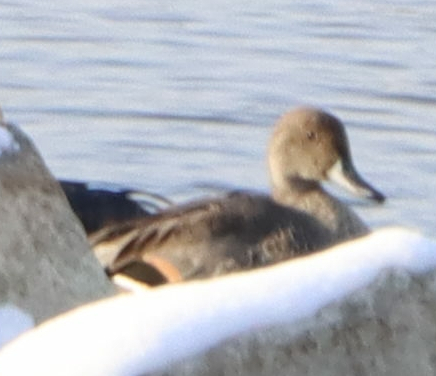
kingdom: Animalia
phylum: Chordata
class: Aves
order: Anseriformes
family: Anatidae
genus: Anas
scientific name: Anas acuta
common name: Northern pintail
